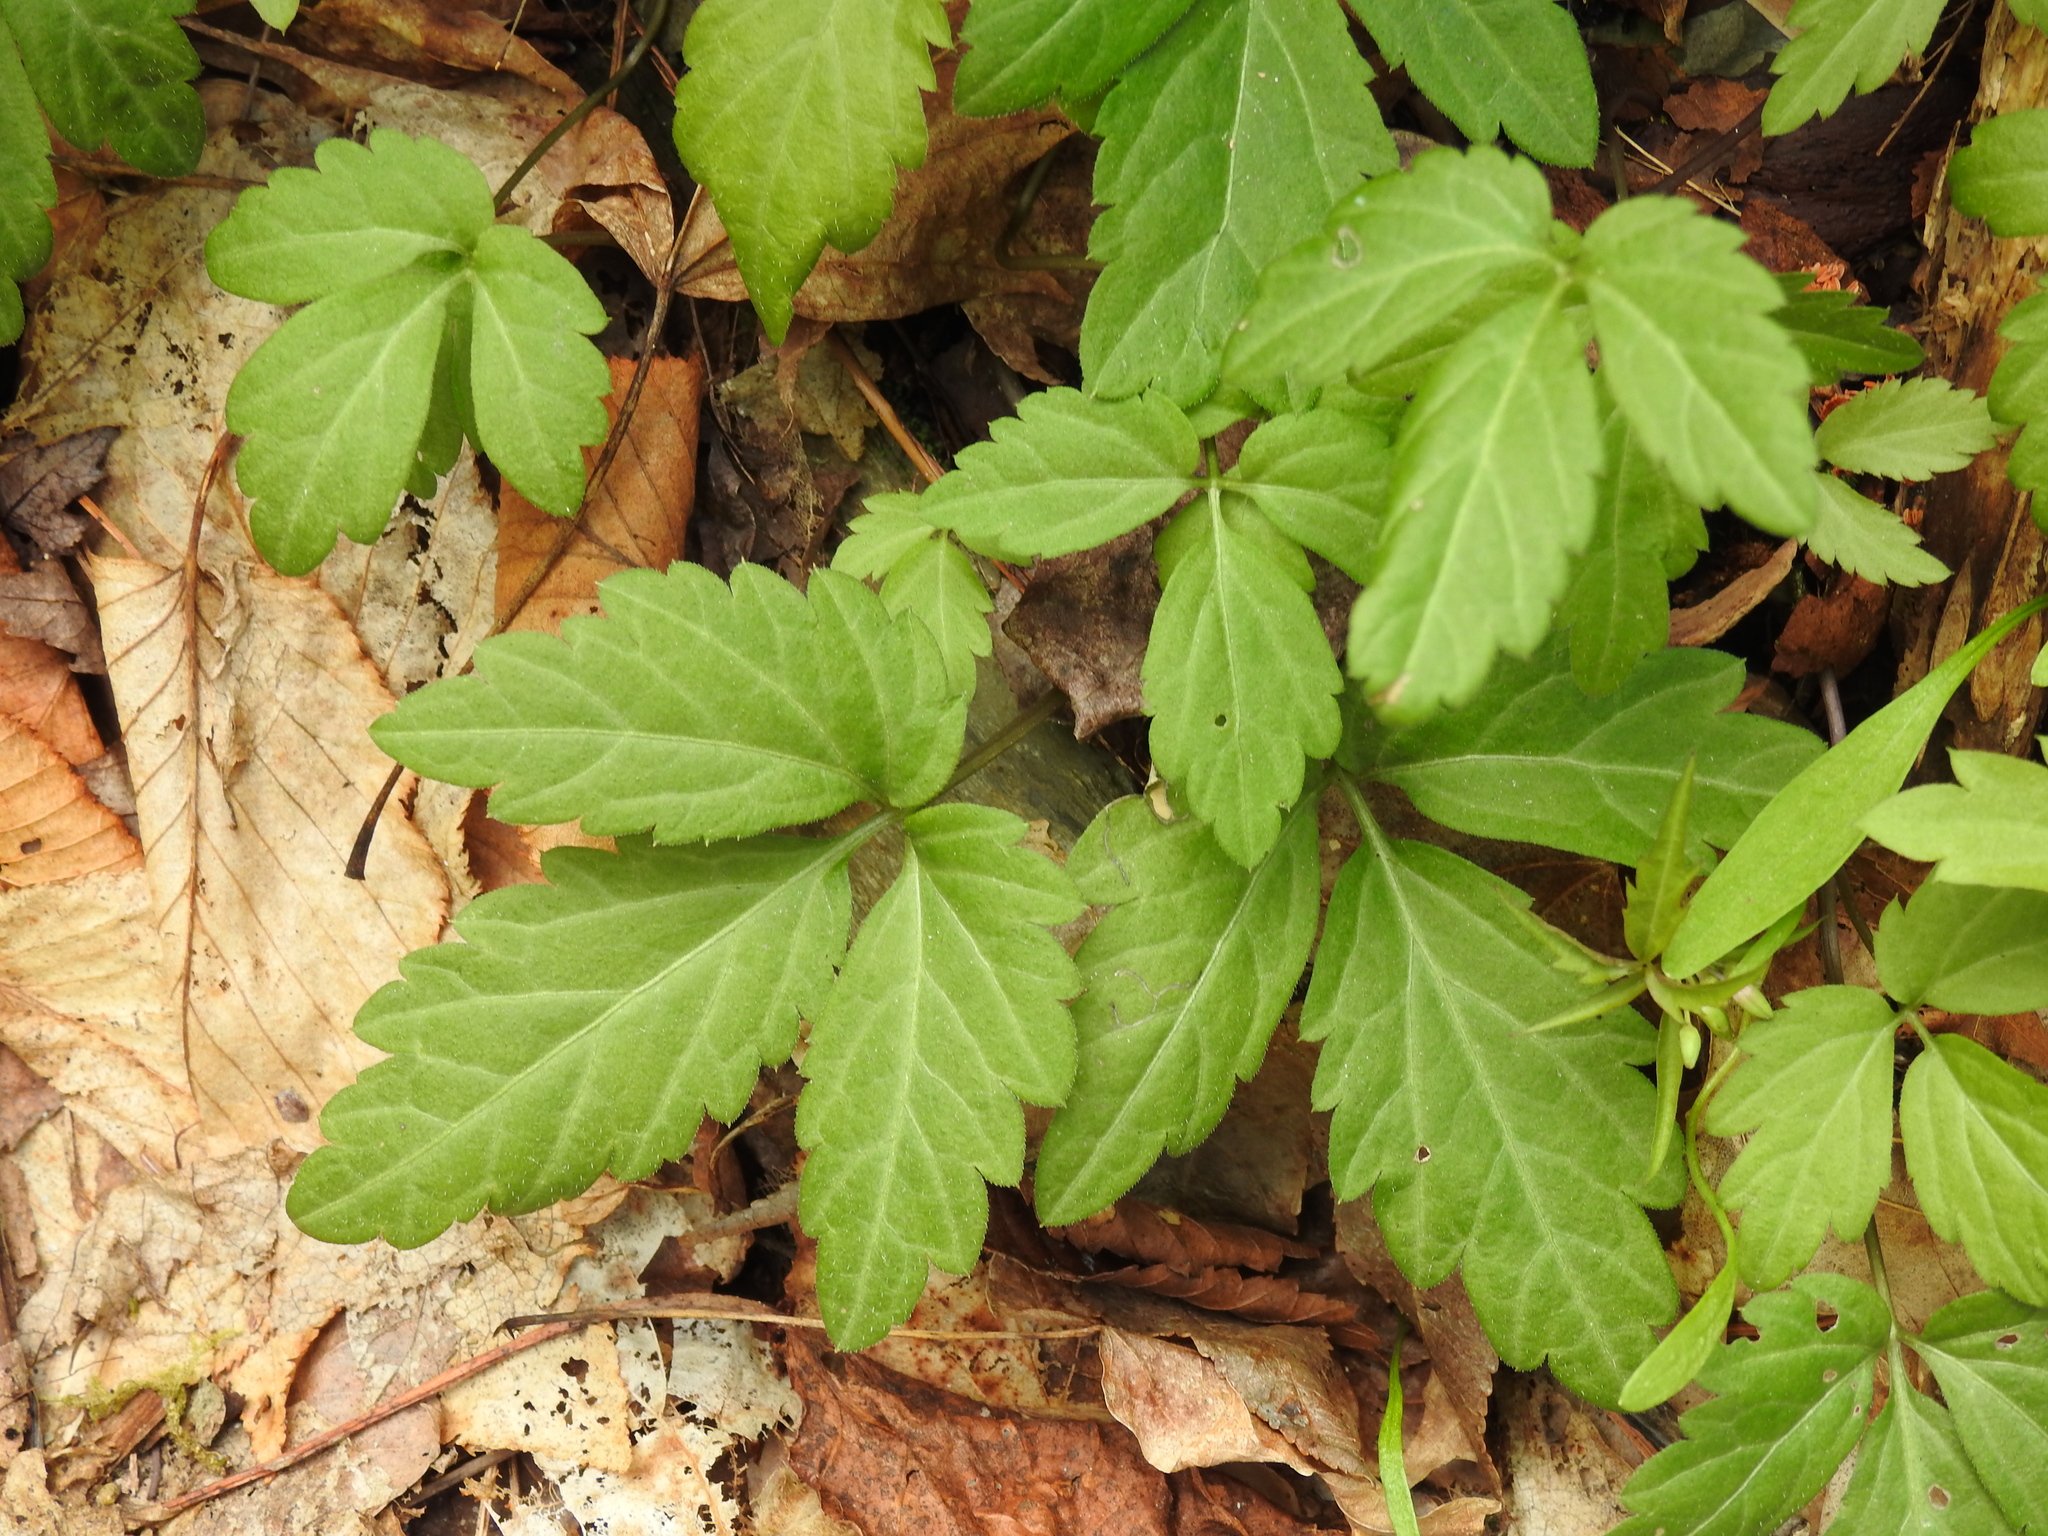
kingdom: Plantae
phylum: Tracheophyta
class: Magnoliopsida
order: Brassicales
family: Brassicaceae
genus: Cardamine
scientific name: Cardamine diphylla
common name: Broad-leaved toothwort
